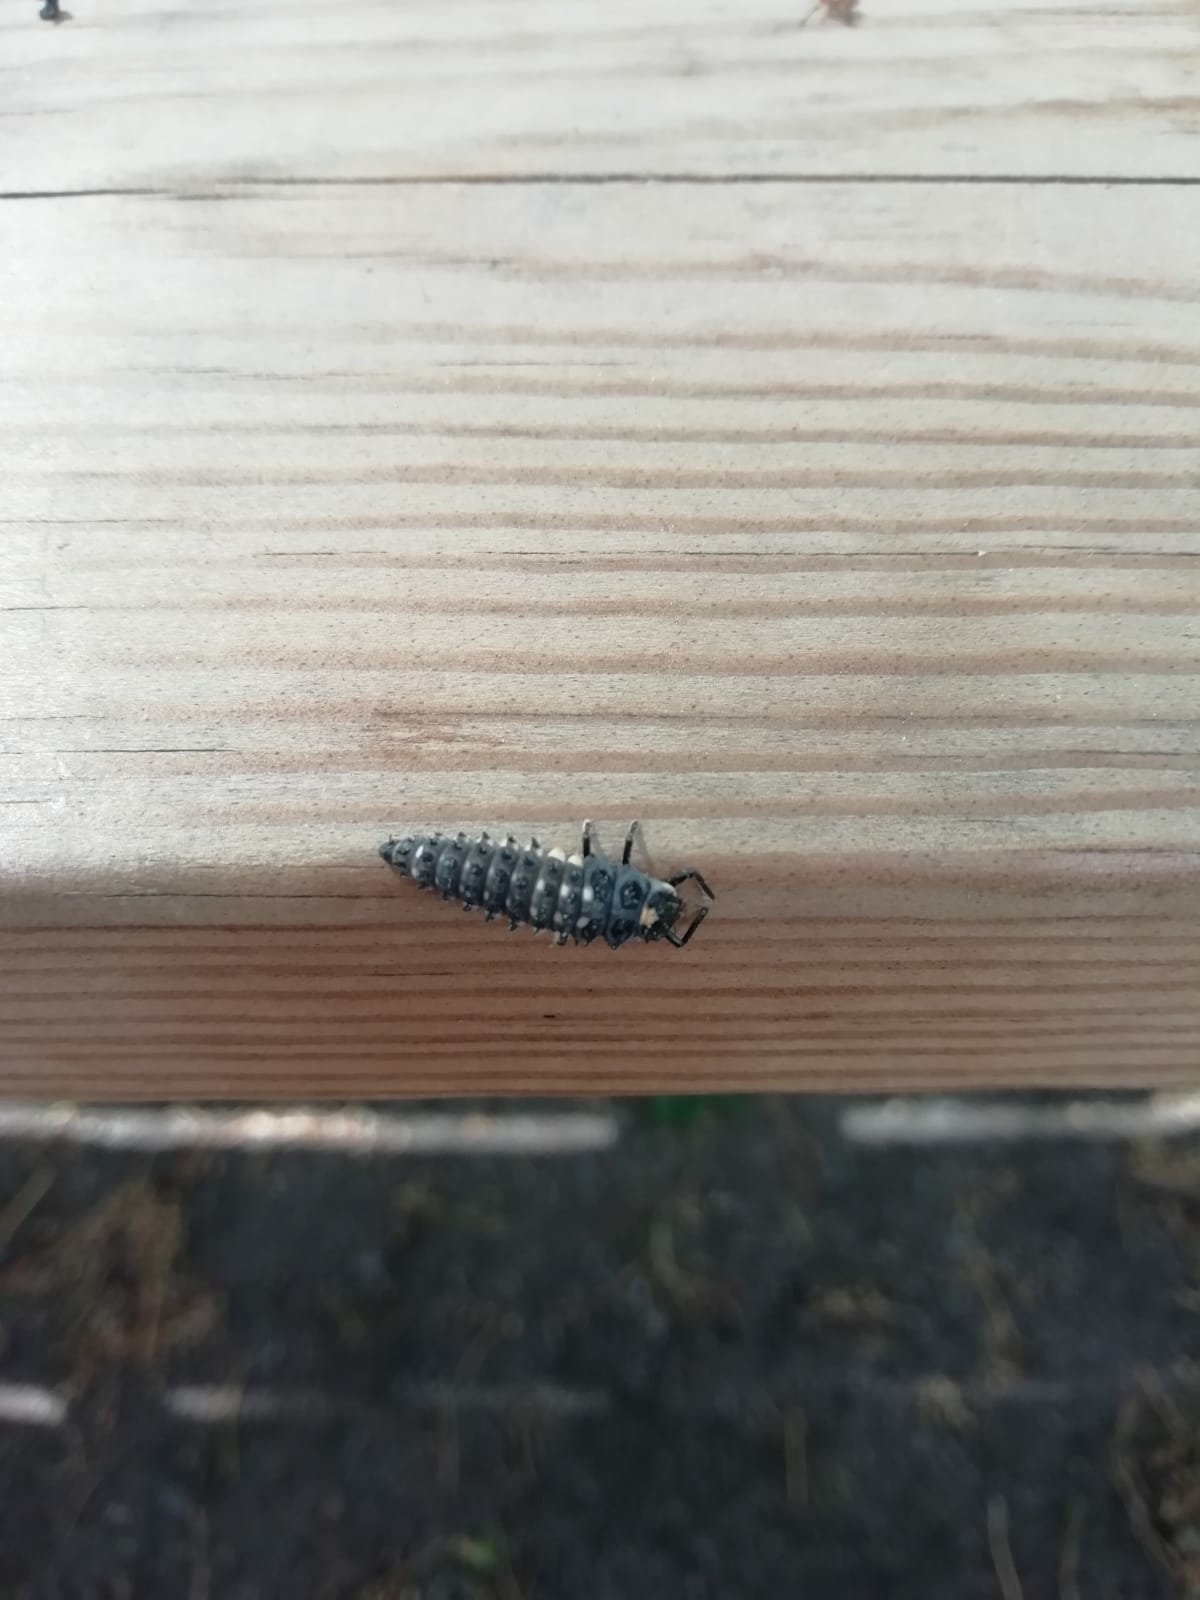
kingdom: Animalia
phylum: Arthropoda
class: Insecta
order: Coleoptera
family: Coccinellidae
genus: Anatis
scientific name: Anatis ocellata
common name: Eyed ladybird
